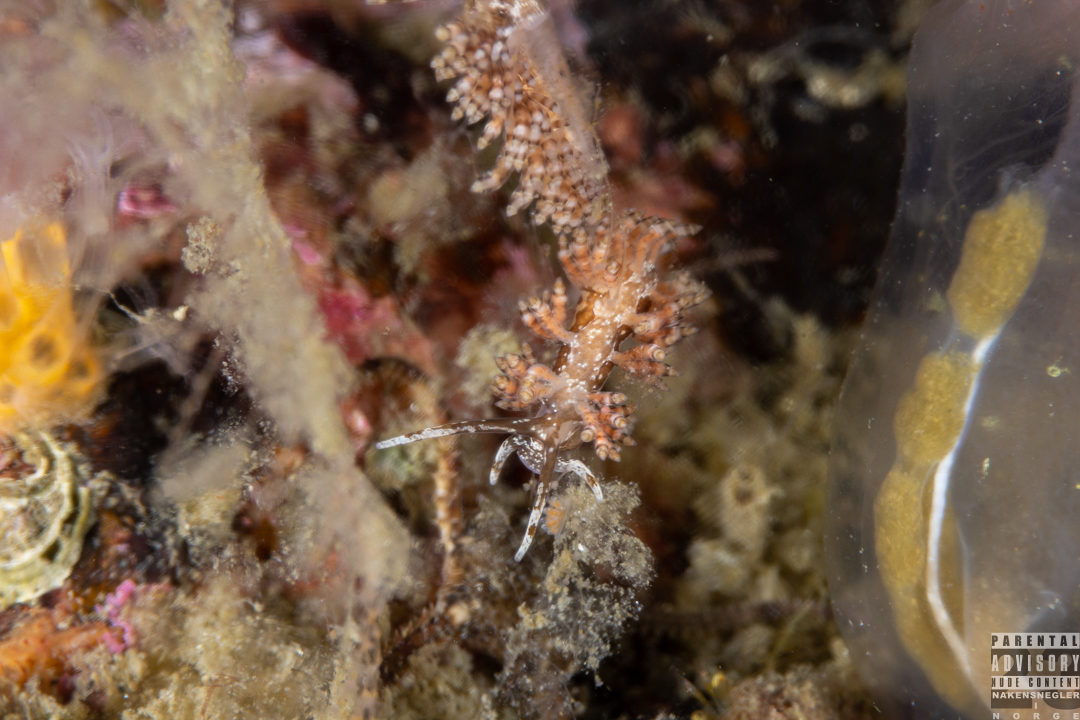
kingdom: Animalia
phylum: Mollusca
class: Gastropoda
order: Nudibranchia
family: Eubranchidae
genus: Eubranchus
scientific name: Eubranchus vittatus
